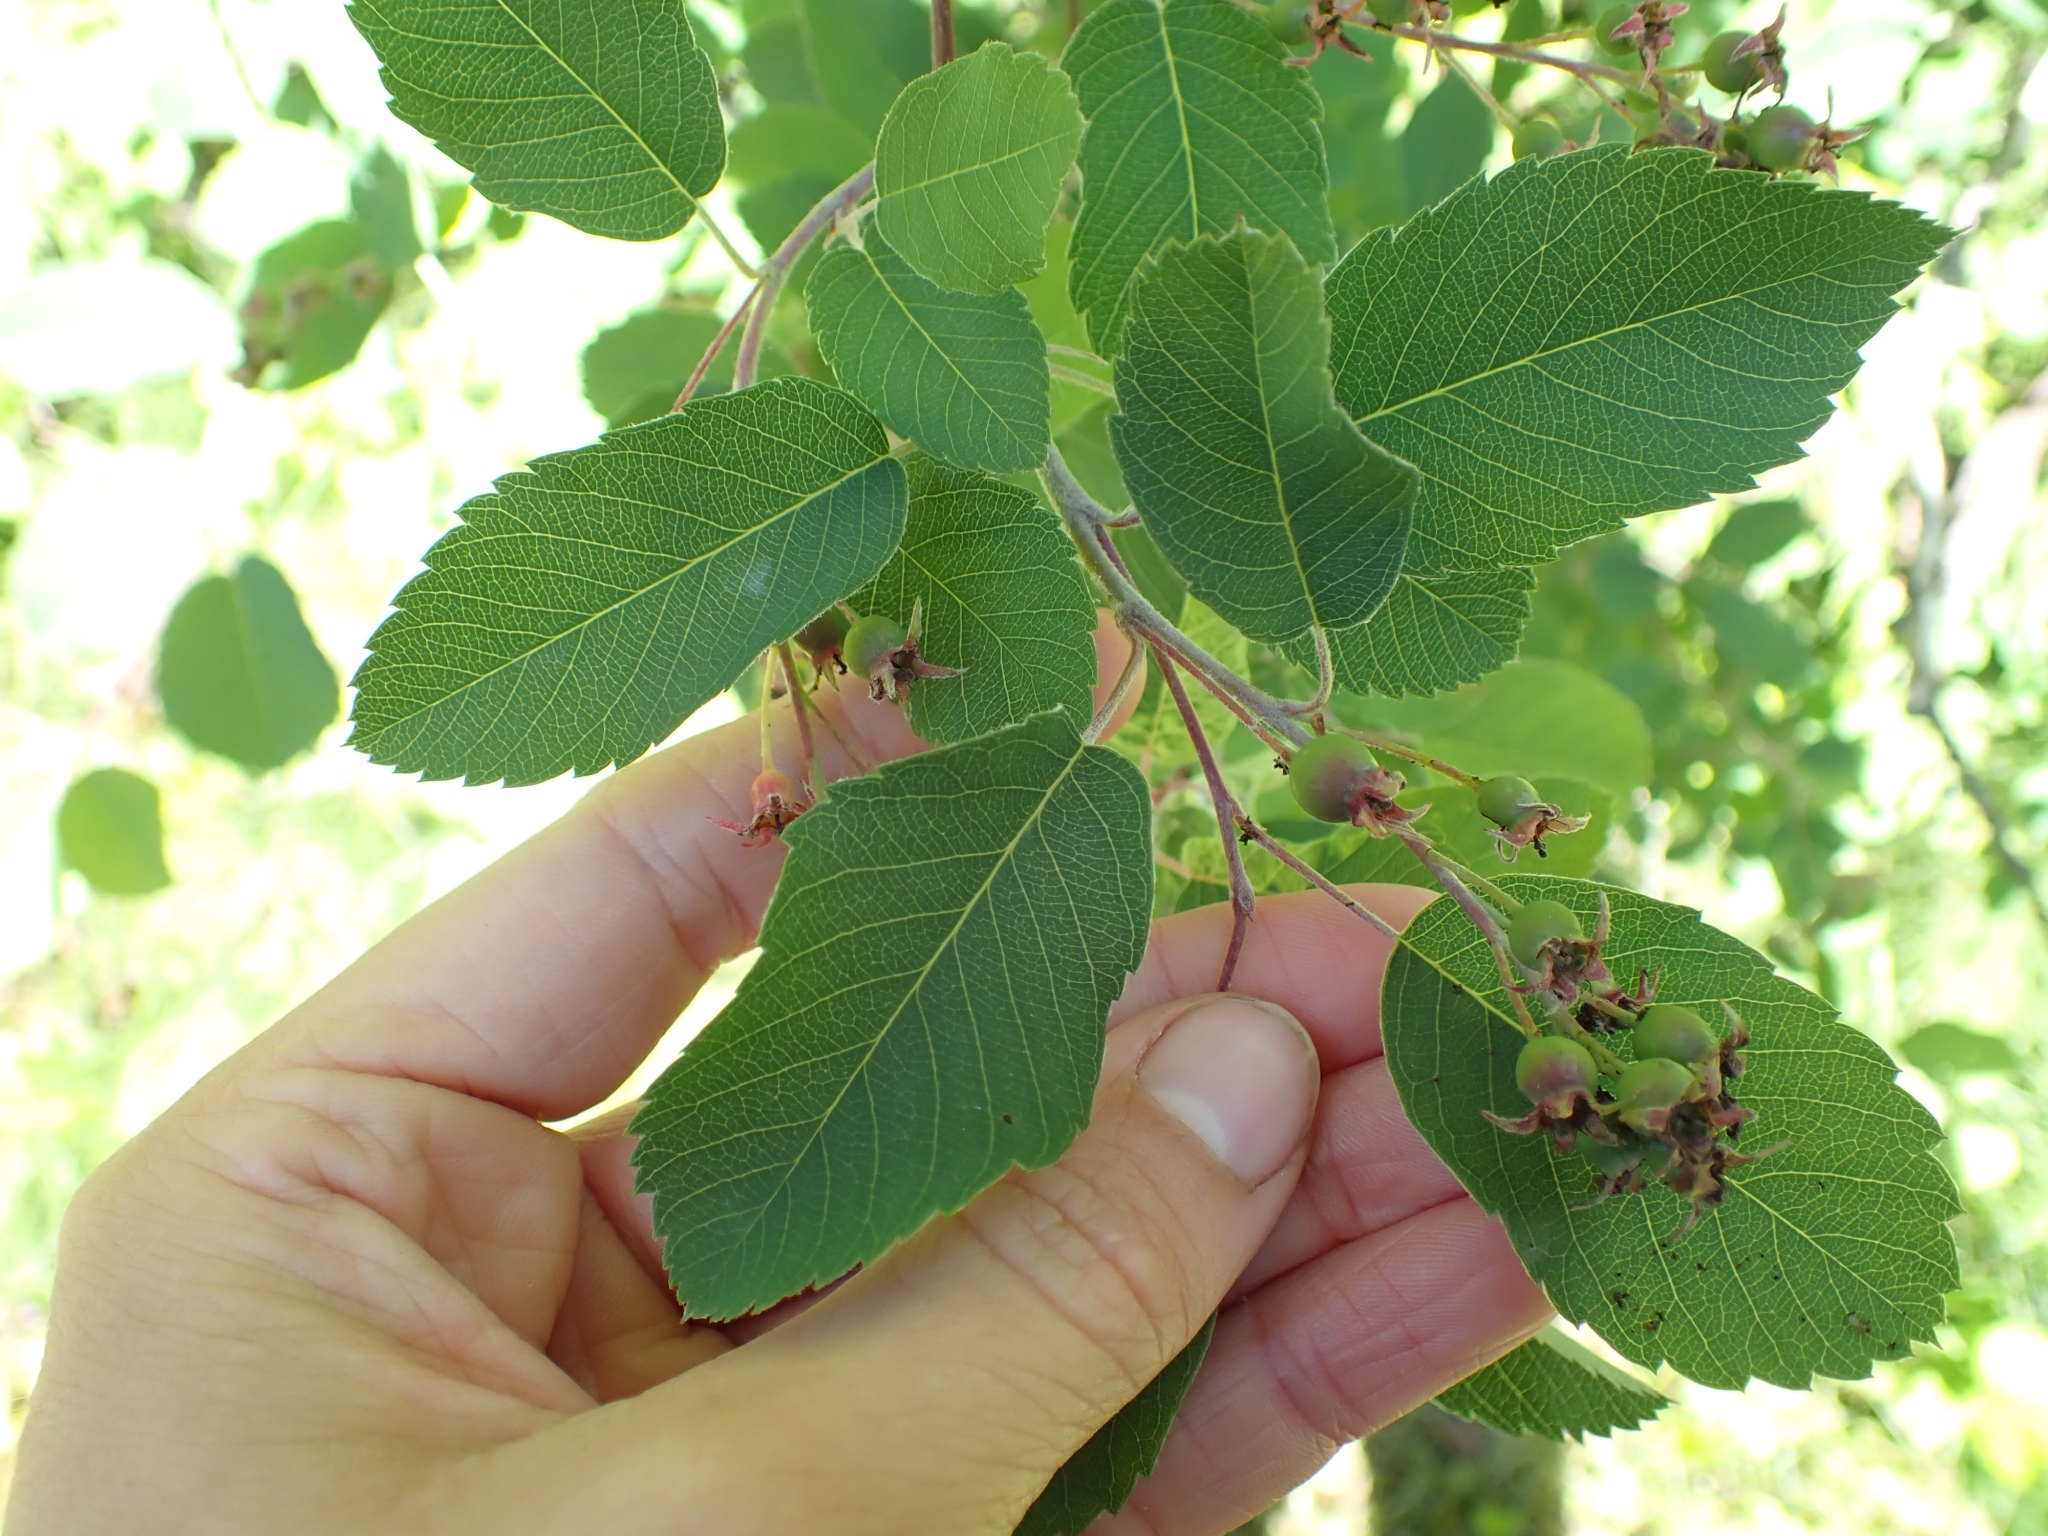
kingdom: Plantae
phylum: Tracheophyta
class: Magnoliopsida
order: Rosales
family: Rosaceae
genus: Amelanchier
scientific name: Amelanchier alnifolia
